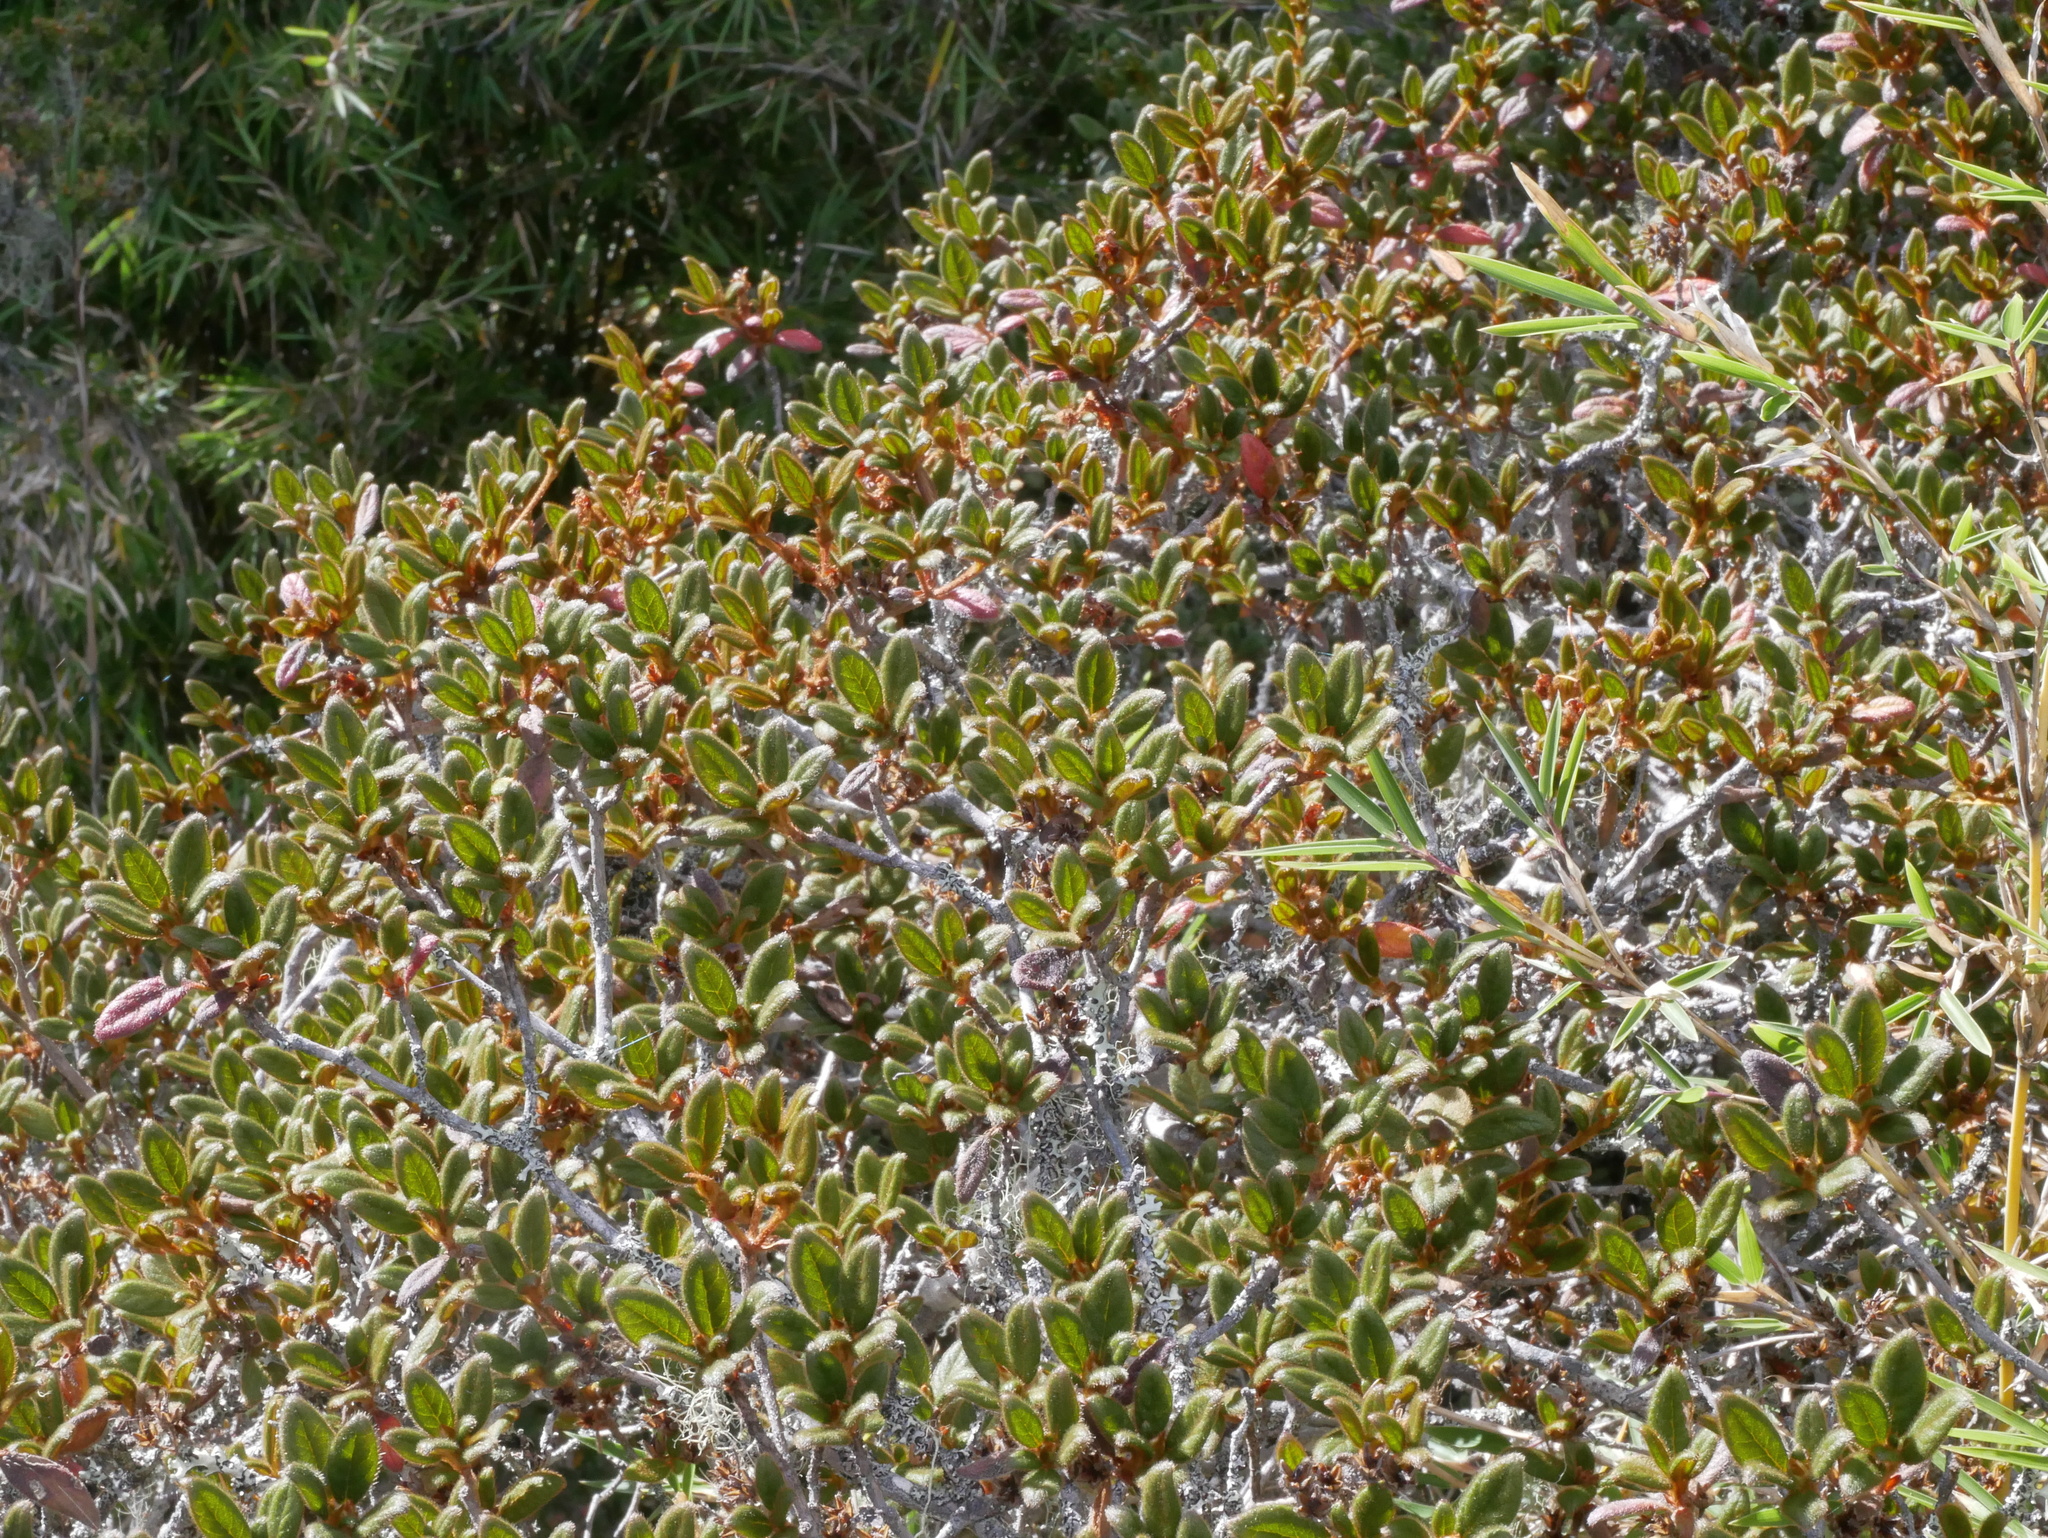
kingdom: Plantae
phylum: Tracheophyta
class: Magnoliopsida
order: Ericales
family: Ericaceae
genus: Rhododendron
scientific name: Rhododendron taiwanalpinum
